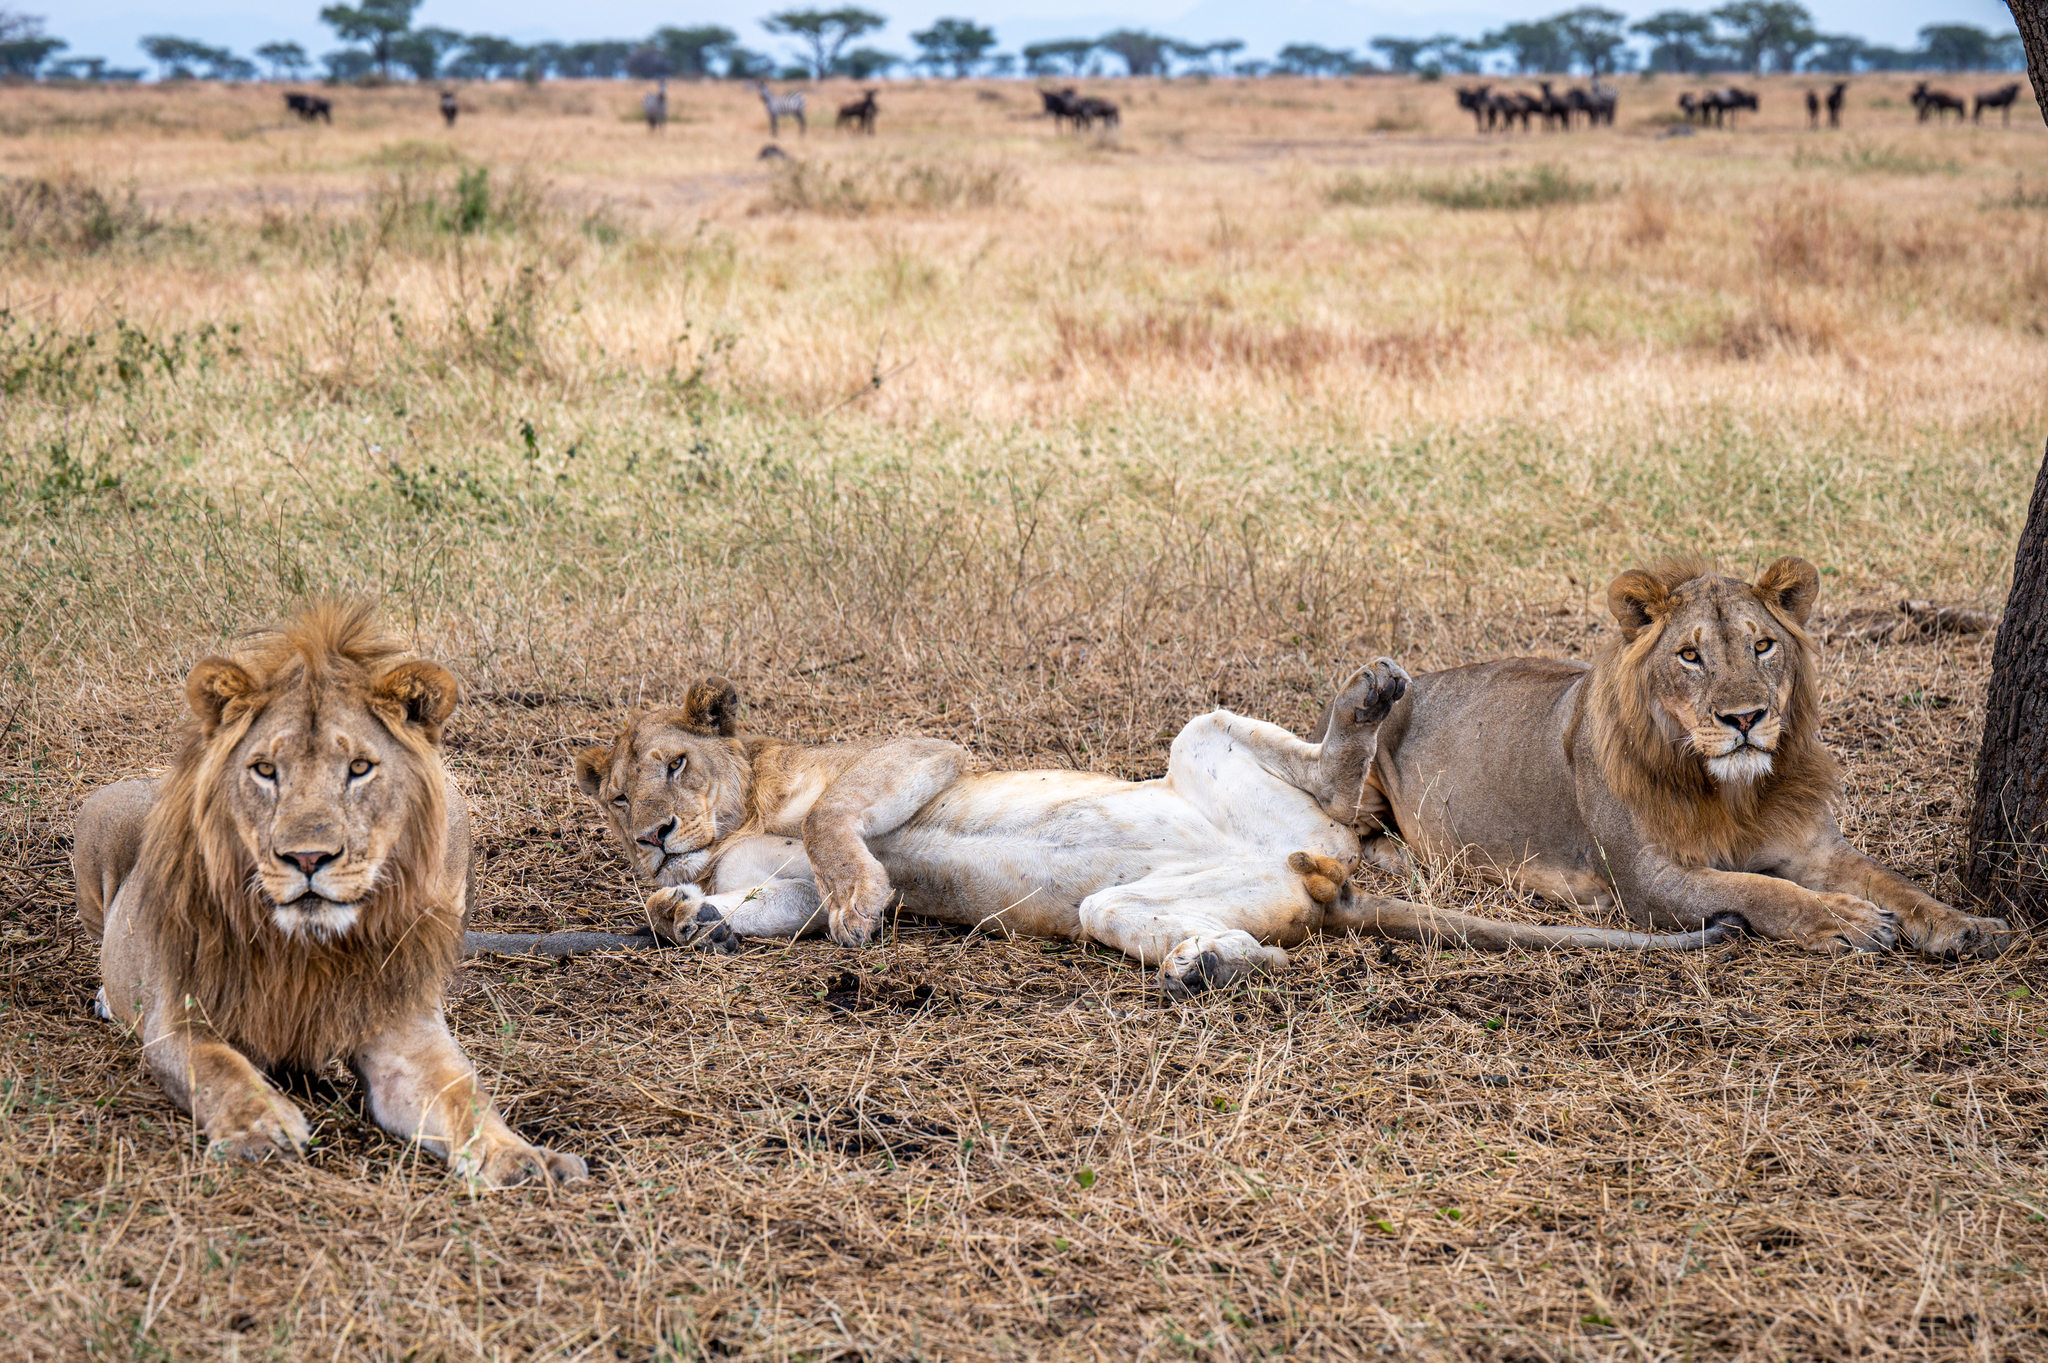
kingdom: Animalia
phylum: Chordata
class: Mammalia
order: Carnivora
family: Felidae
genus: Panthera
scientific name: Panthera leo
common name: Lion
